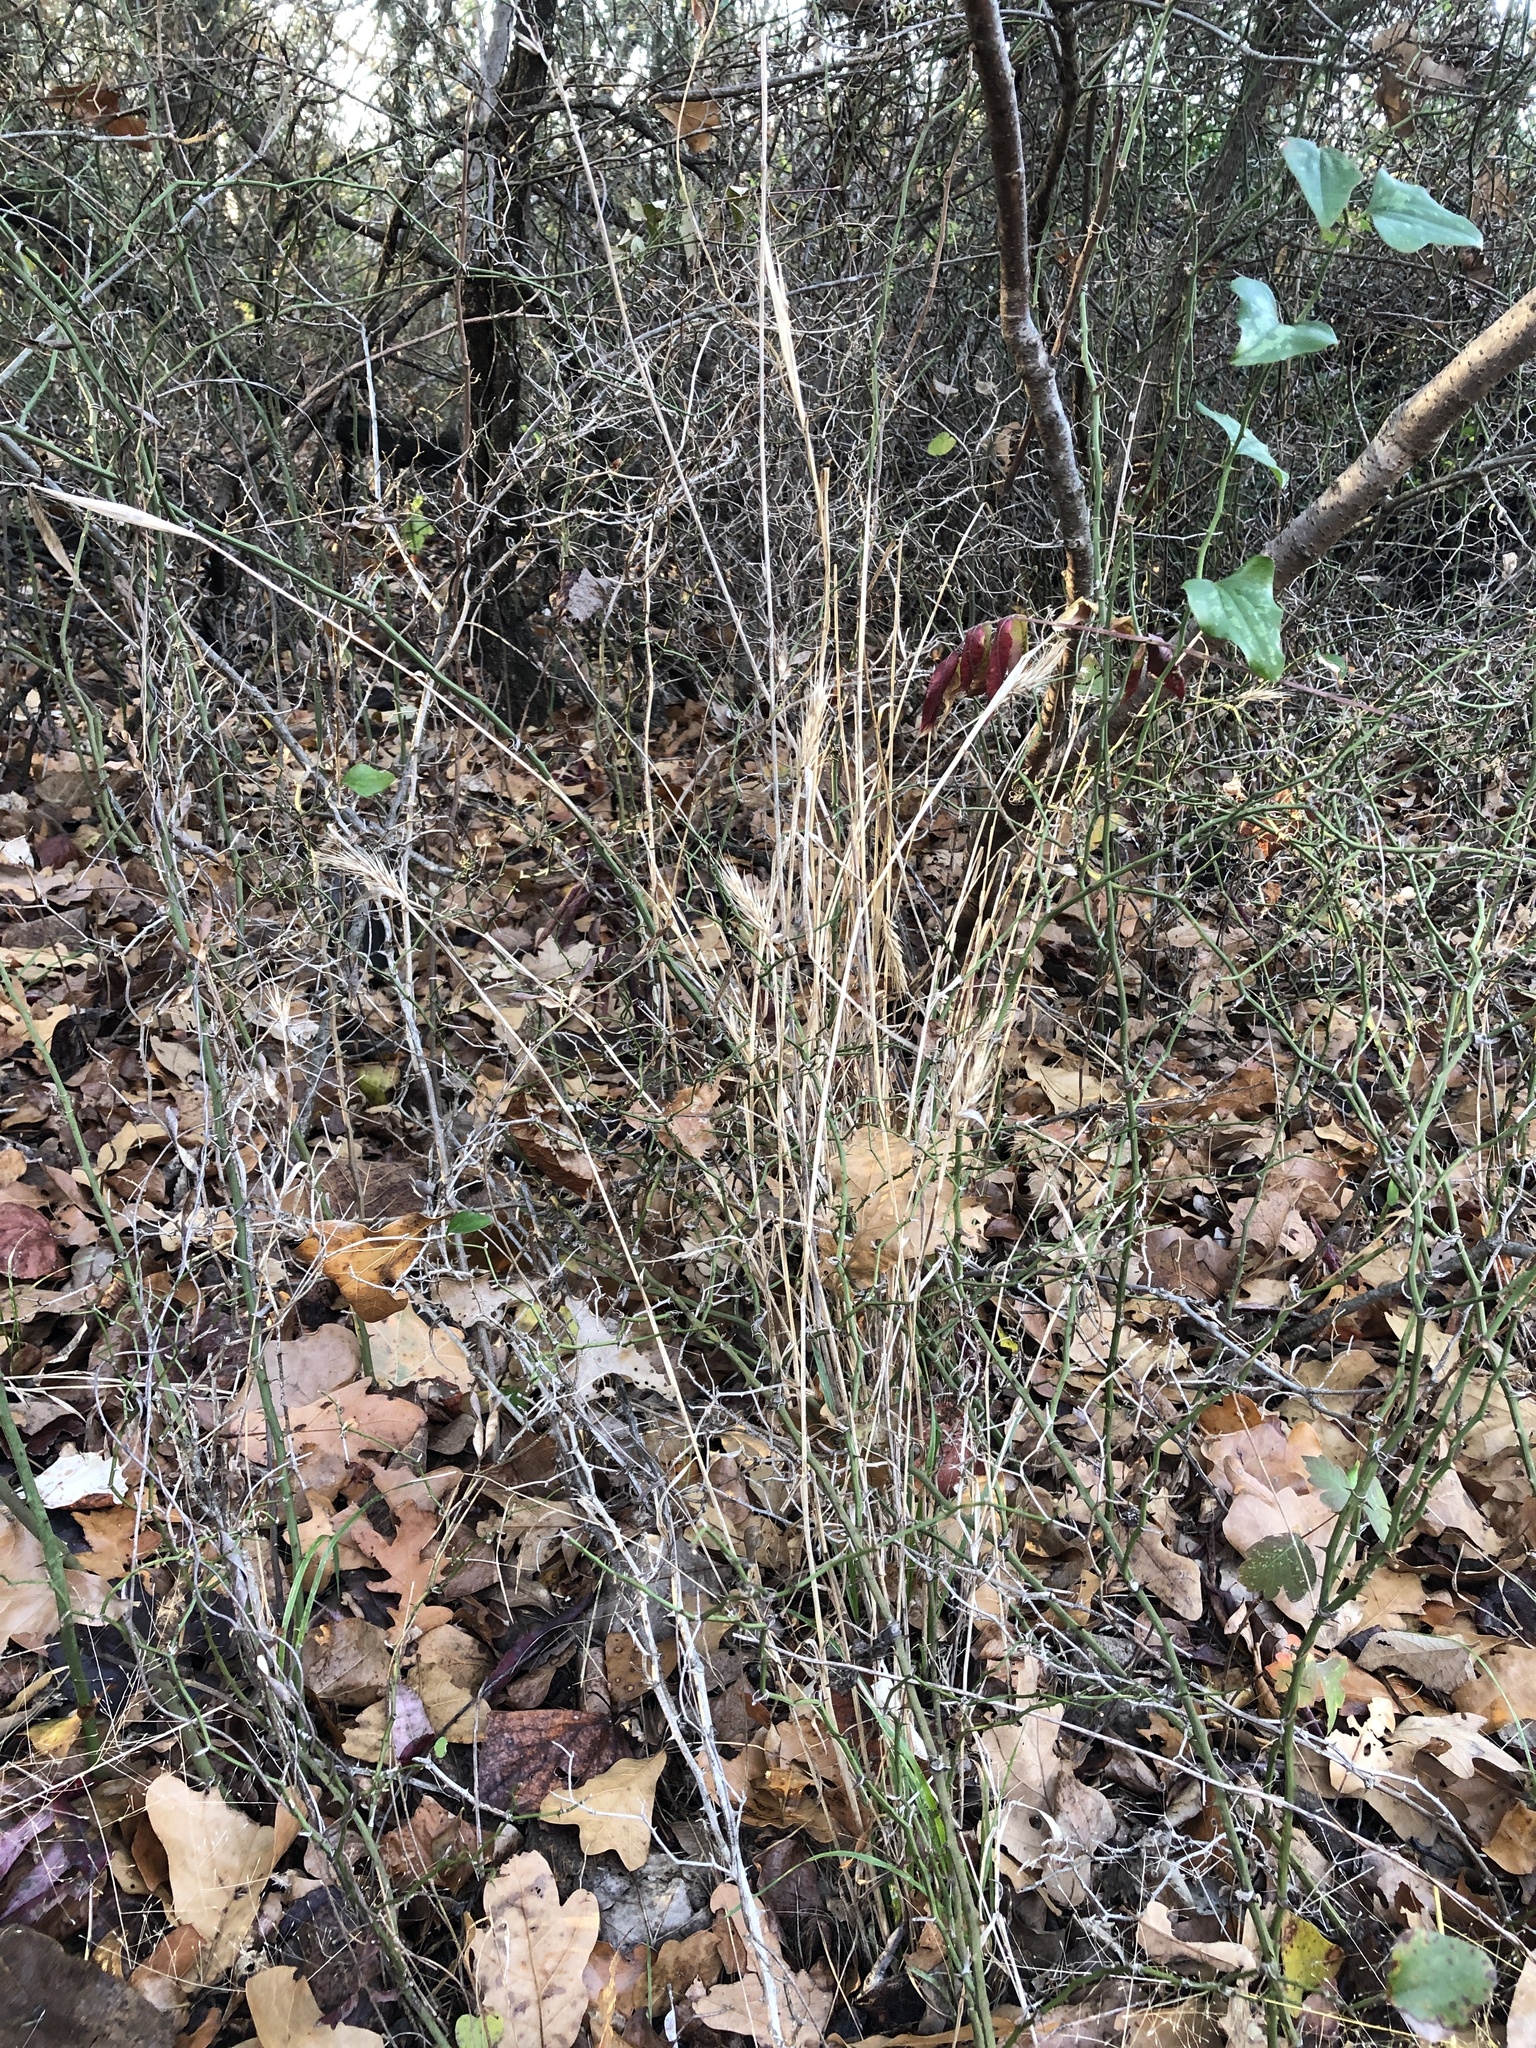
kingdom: Plantae
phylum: Tracheophyta
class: Liliopsida
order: Poales
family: Poaceae
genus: Elymus
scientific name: Elymus virginicus
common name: Common eastern wildrye
